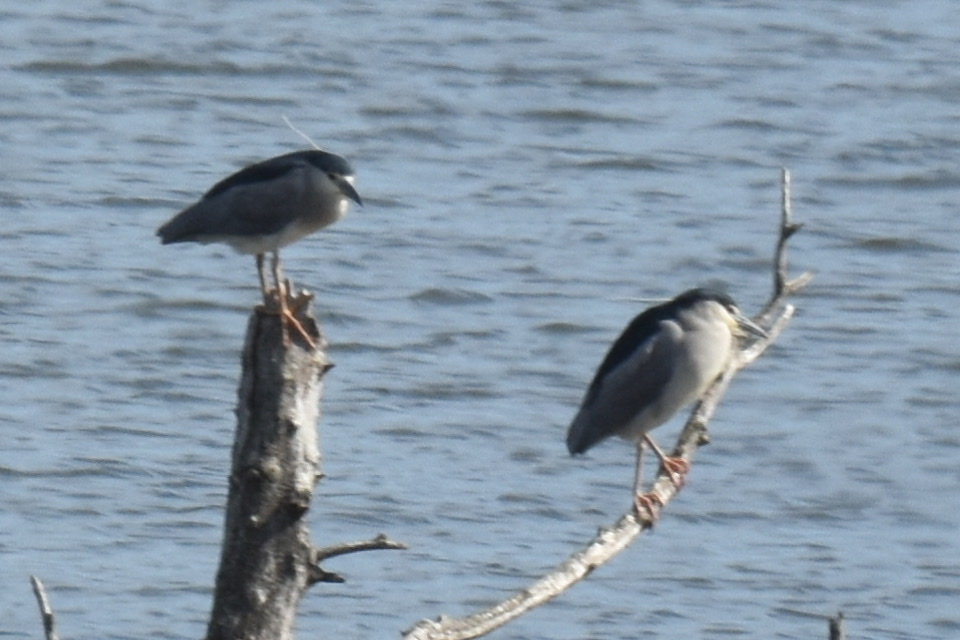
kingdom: Animalia
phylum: Chordata
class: Aves
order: Pelecaniformes
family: Ardeidae
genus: Nycticorax
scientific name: Nycticorax nycticorax
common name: Black-crowned night heron
